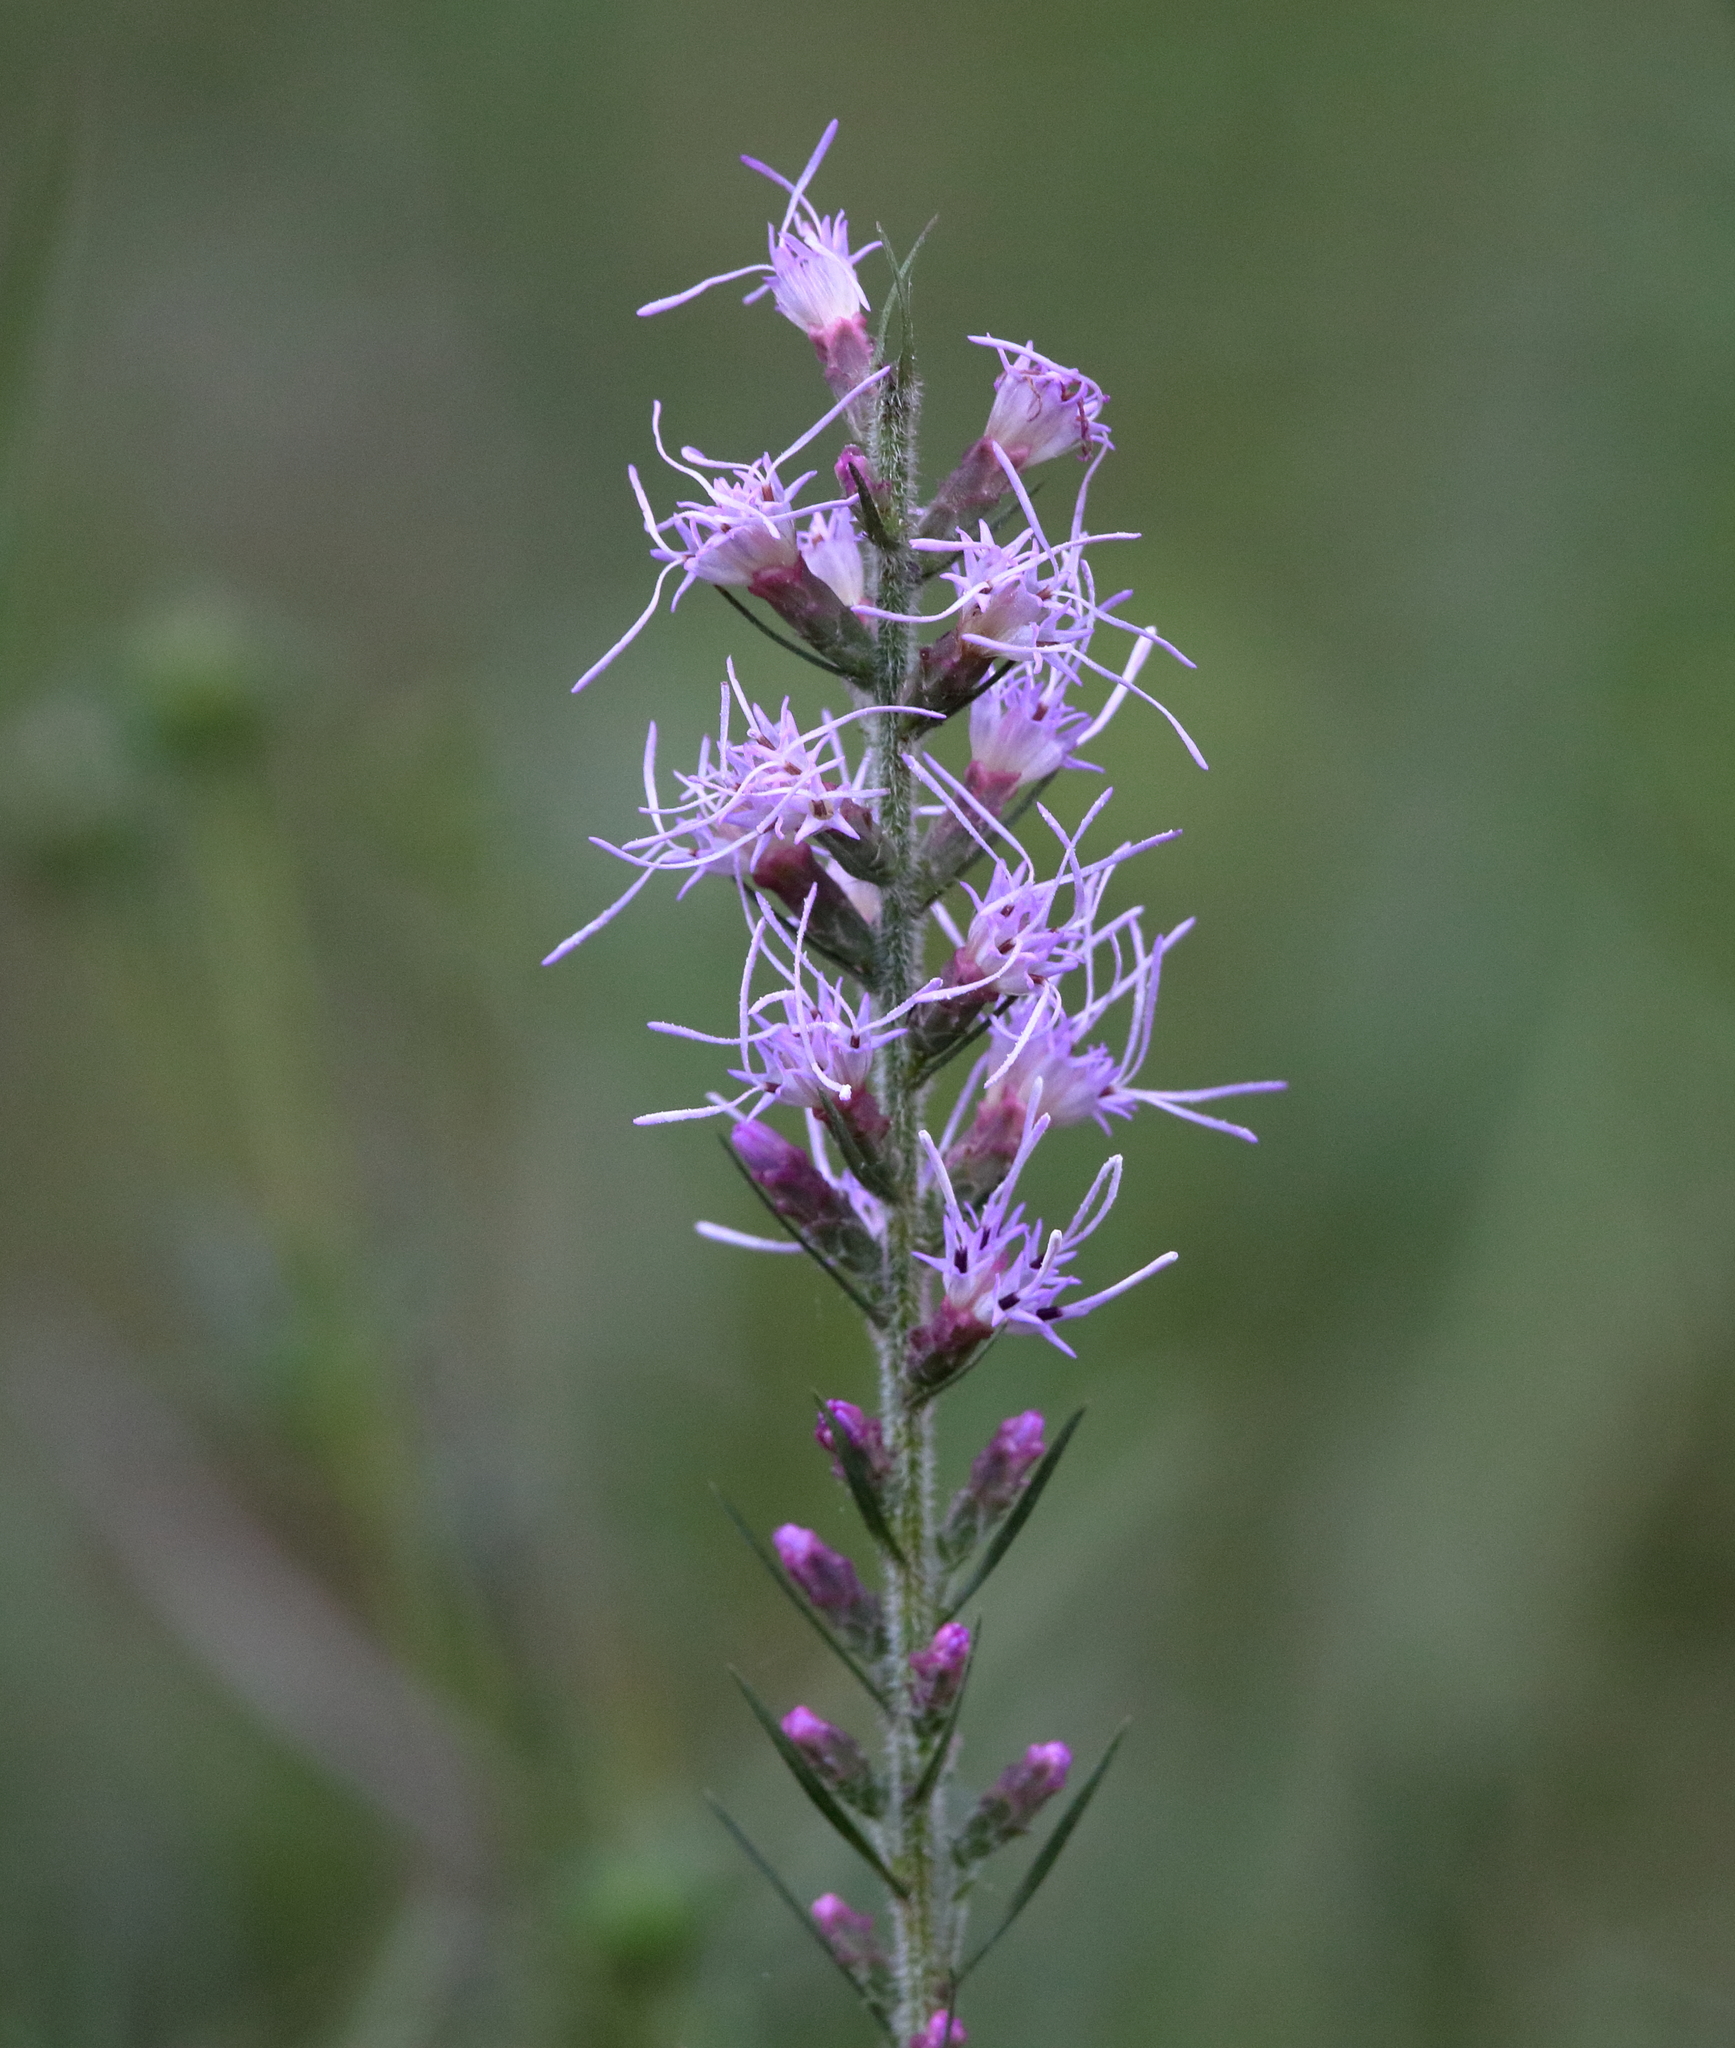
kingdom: Plantae
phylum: Tracheophyta
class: Magnoliopsida
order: Asterales
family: Asteraceae
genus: Liatris
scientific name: Liatris spicata
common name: Florist gayfeather
